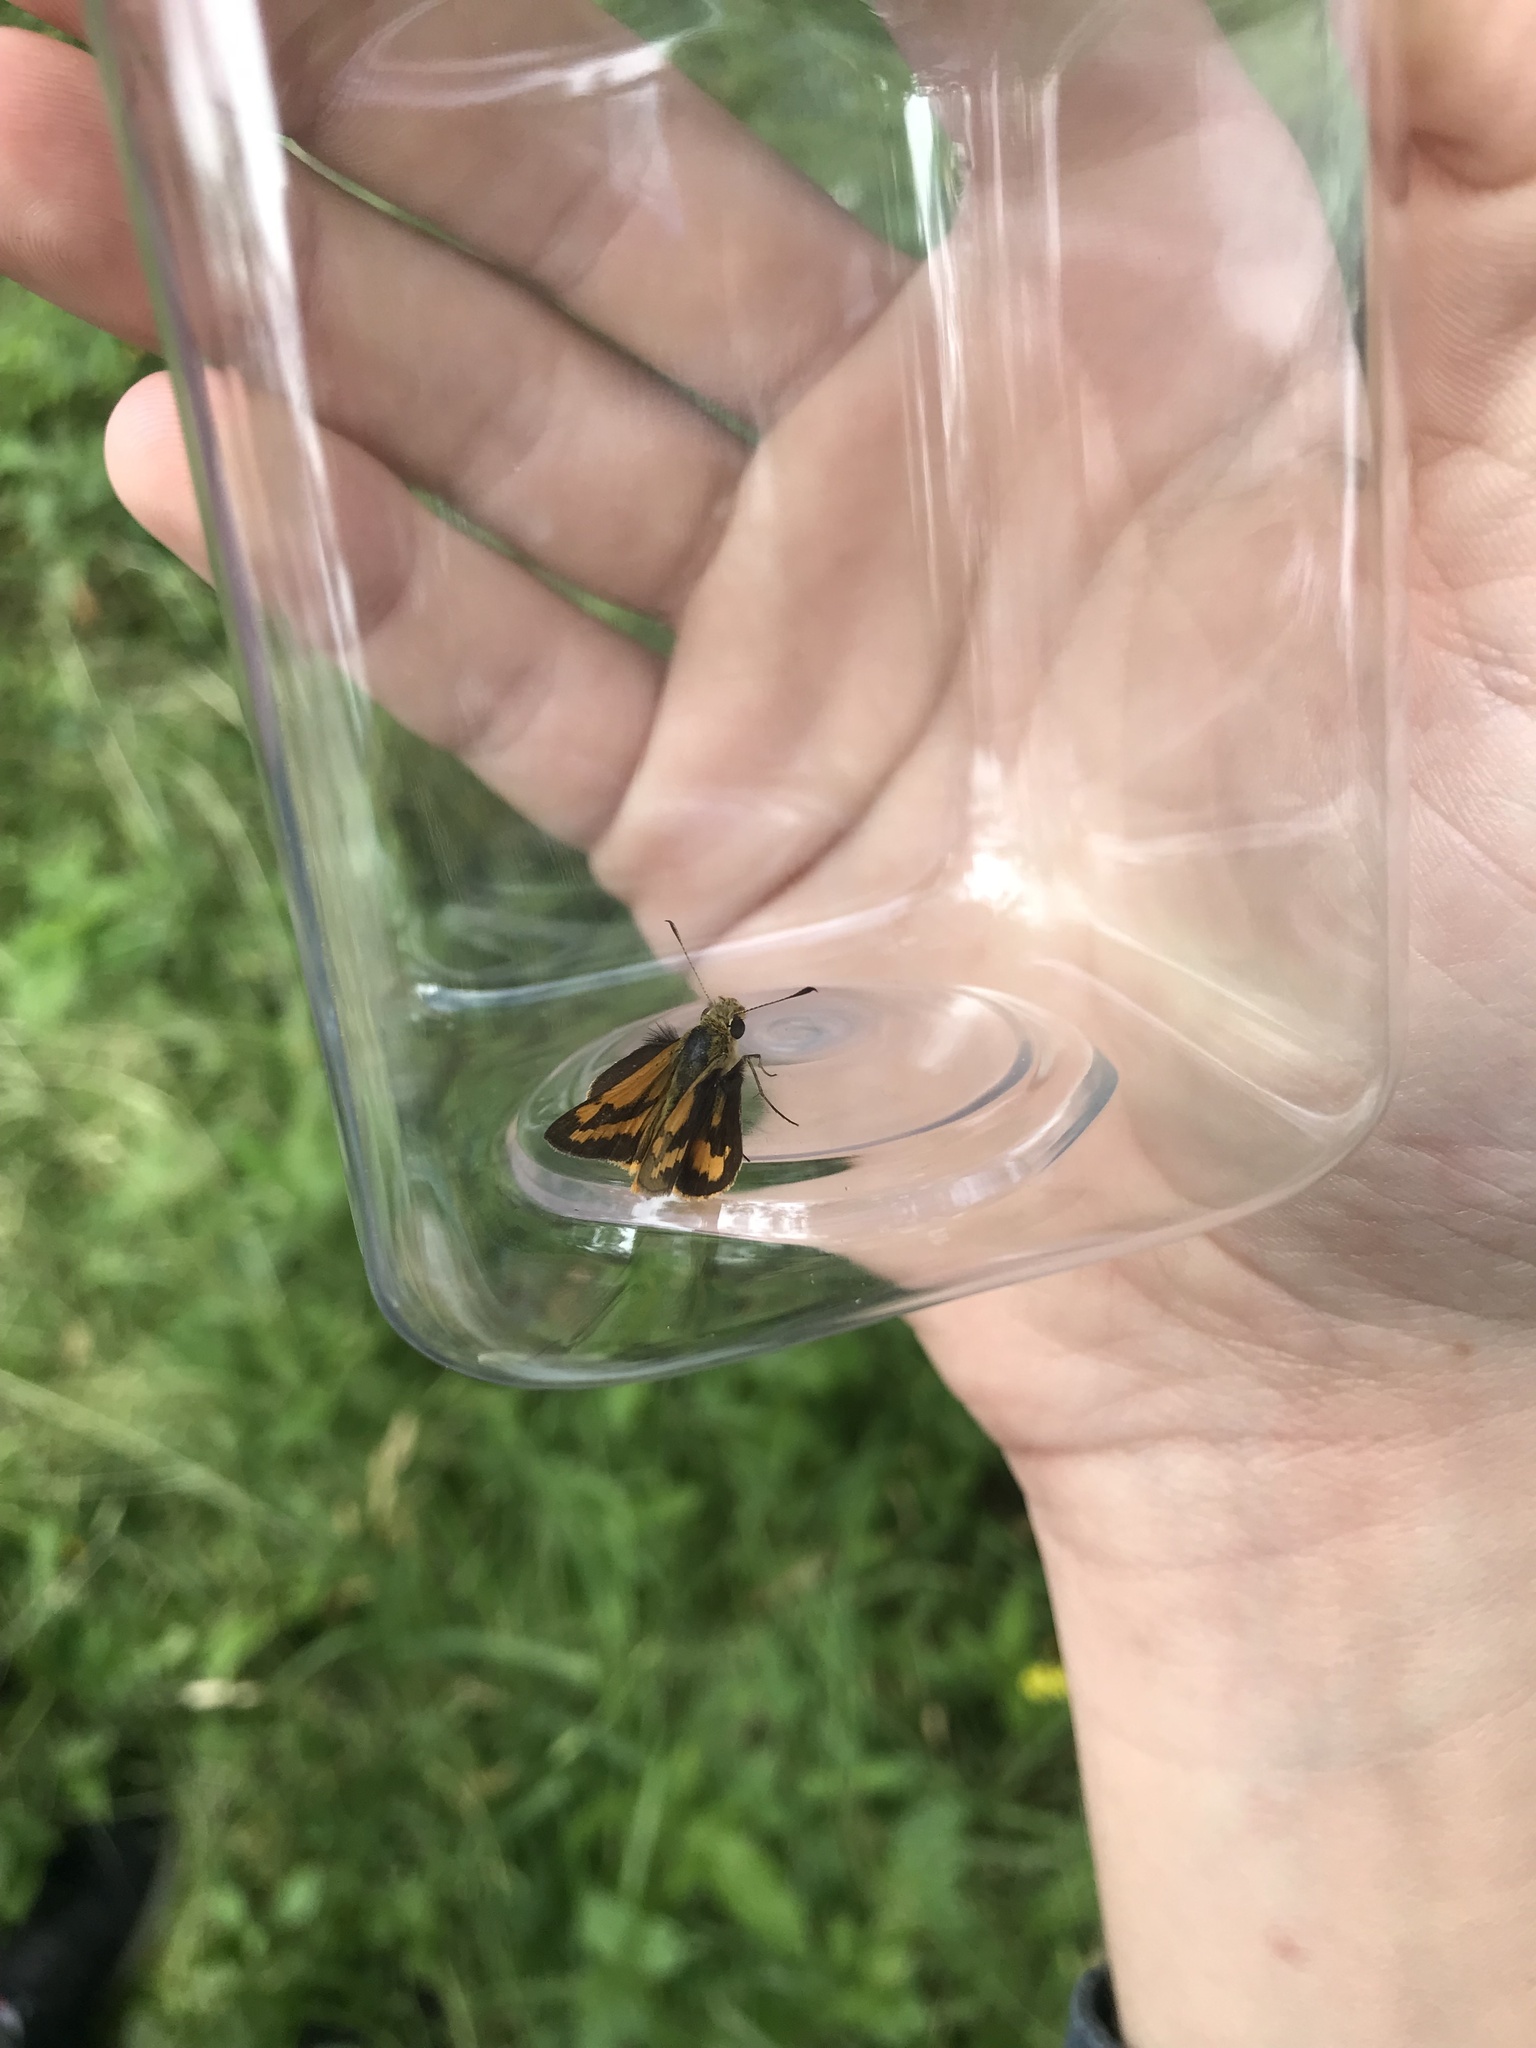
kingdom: Animalia
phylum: Arthropoda
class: Insecta
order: Lepidoptera
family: Hesperiidae
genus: Ocybadistes
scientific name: Ocybadistes walkeri
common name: Yellow-banded dart
